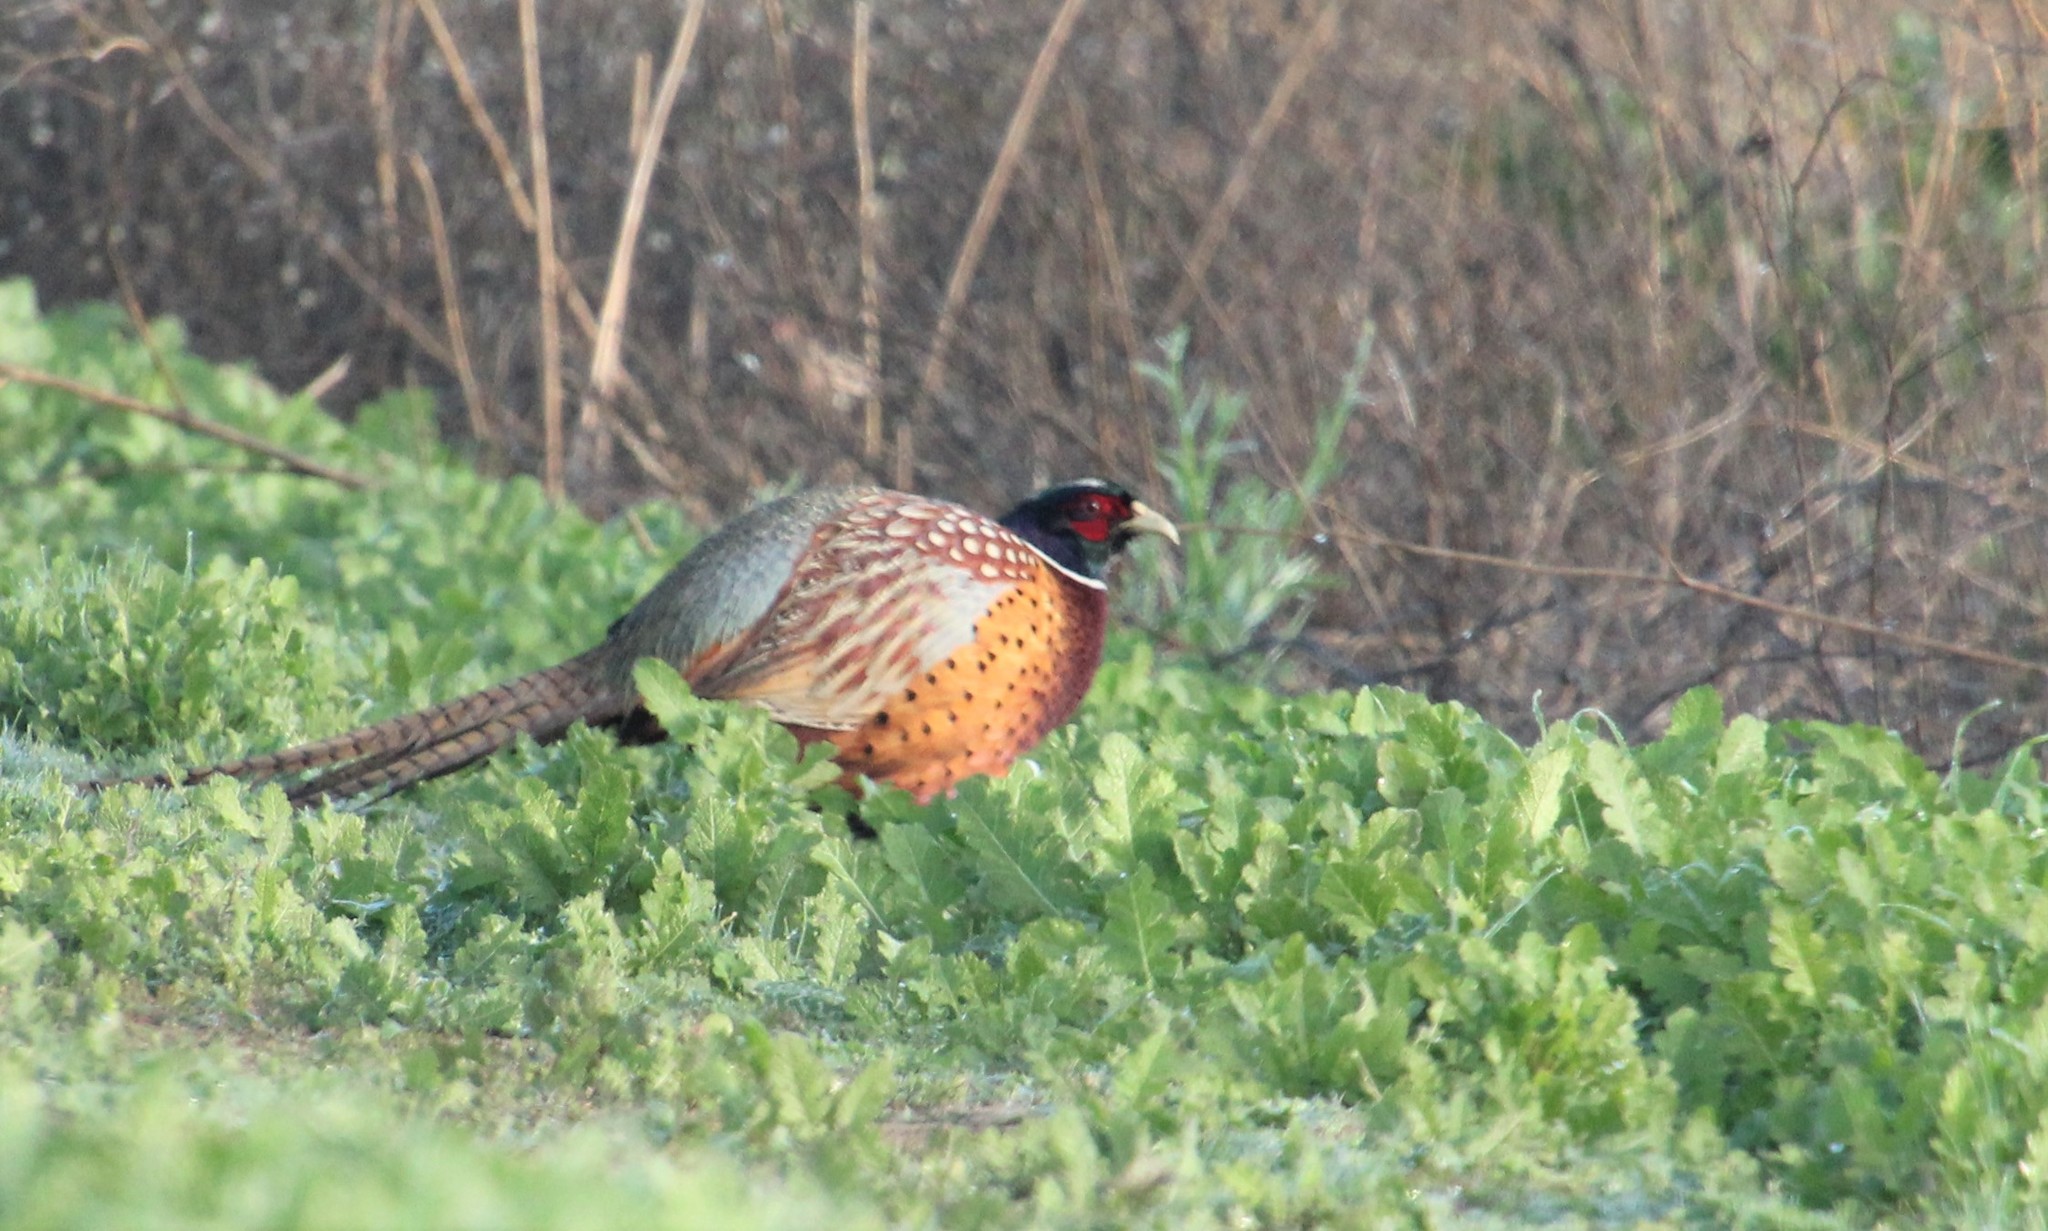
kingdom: Animalia
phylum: Chordata
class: Aves
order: Galliformes
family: Phasianidae
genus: Phasianus
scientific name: Phasianus colchicus
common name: Common pheasant
